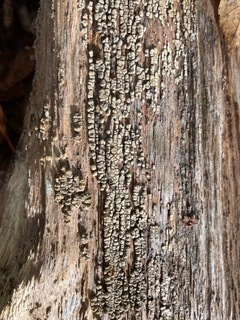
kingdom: Fungi
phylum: Basidiomycota
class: Agaricomycetes
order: Russulales
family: Stereaceae
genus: Xylobolus
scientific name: Xylobolus frustulatus
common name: Ceramic parchment
